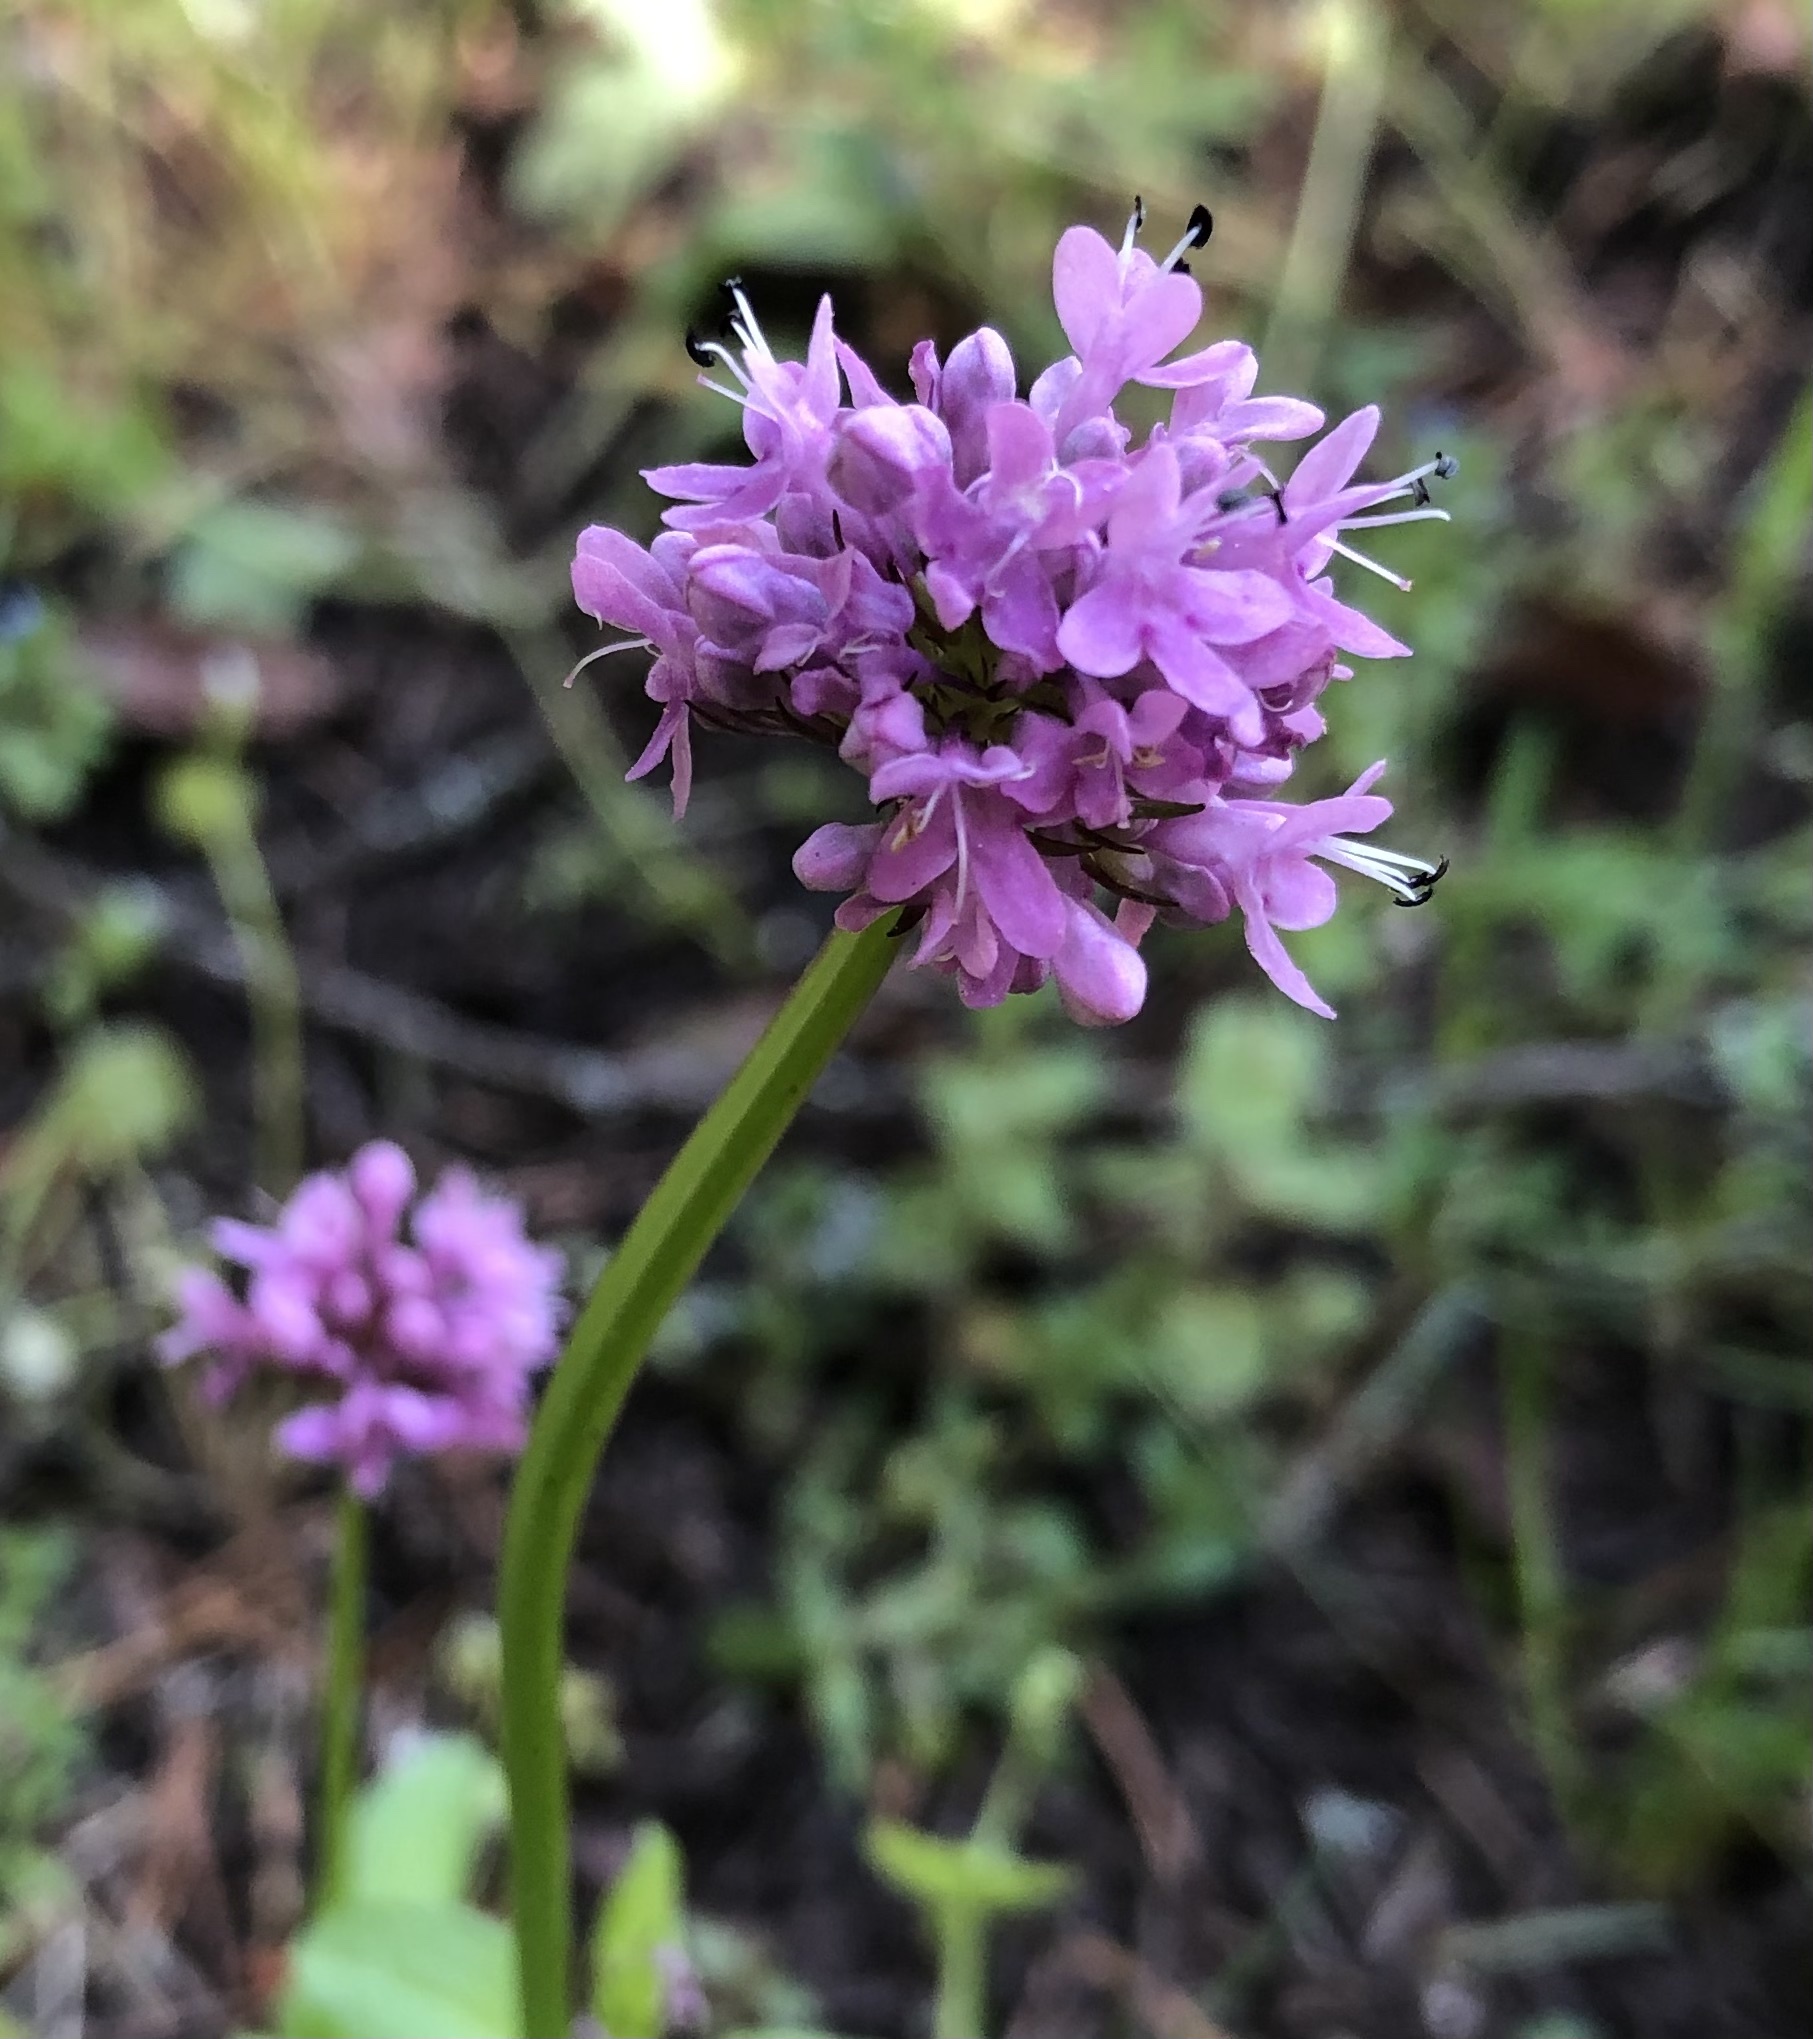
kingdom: Plantae
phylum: Tracheophyta
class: Magnoliopsida
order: Dipsacales
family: Caprifoliaceae
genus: Plectritis
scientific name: Plectritis congesta
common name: Pink plectritis
